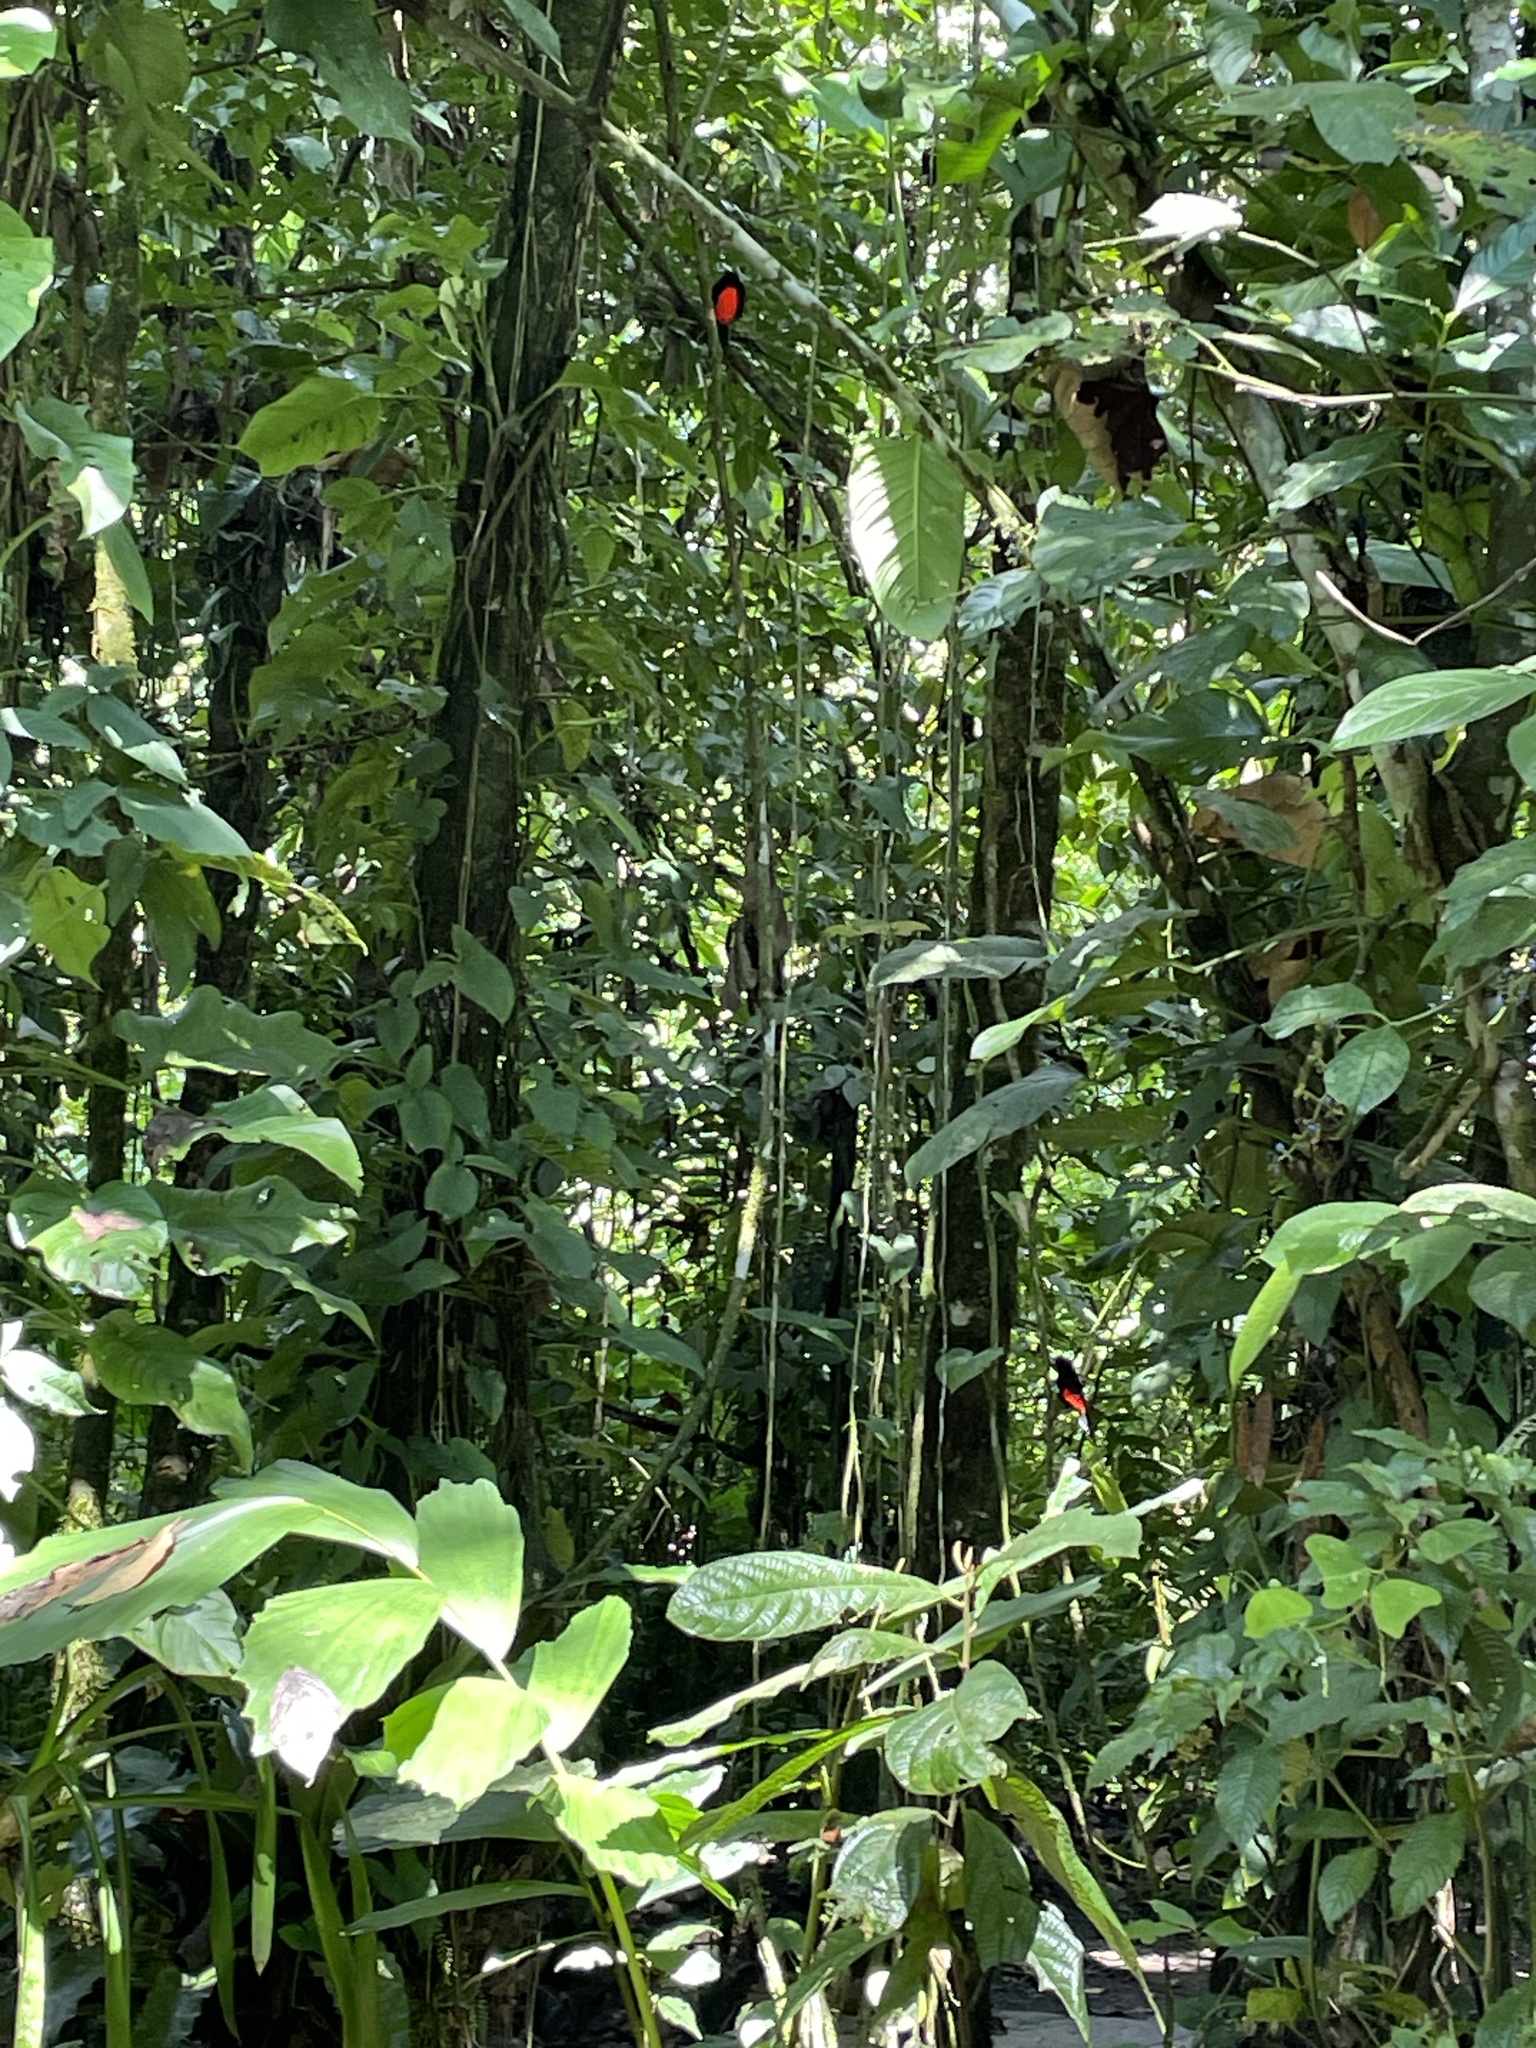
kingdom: Animalia
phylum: Chordata
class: Aves
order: Passeriformes
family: Thraupidae
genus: Ramphocelus
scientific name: Ramphocelus passerinii
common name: Passerini's tanager
